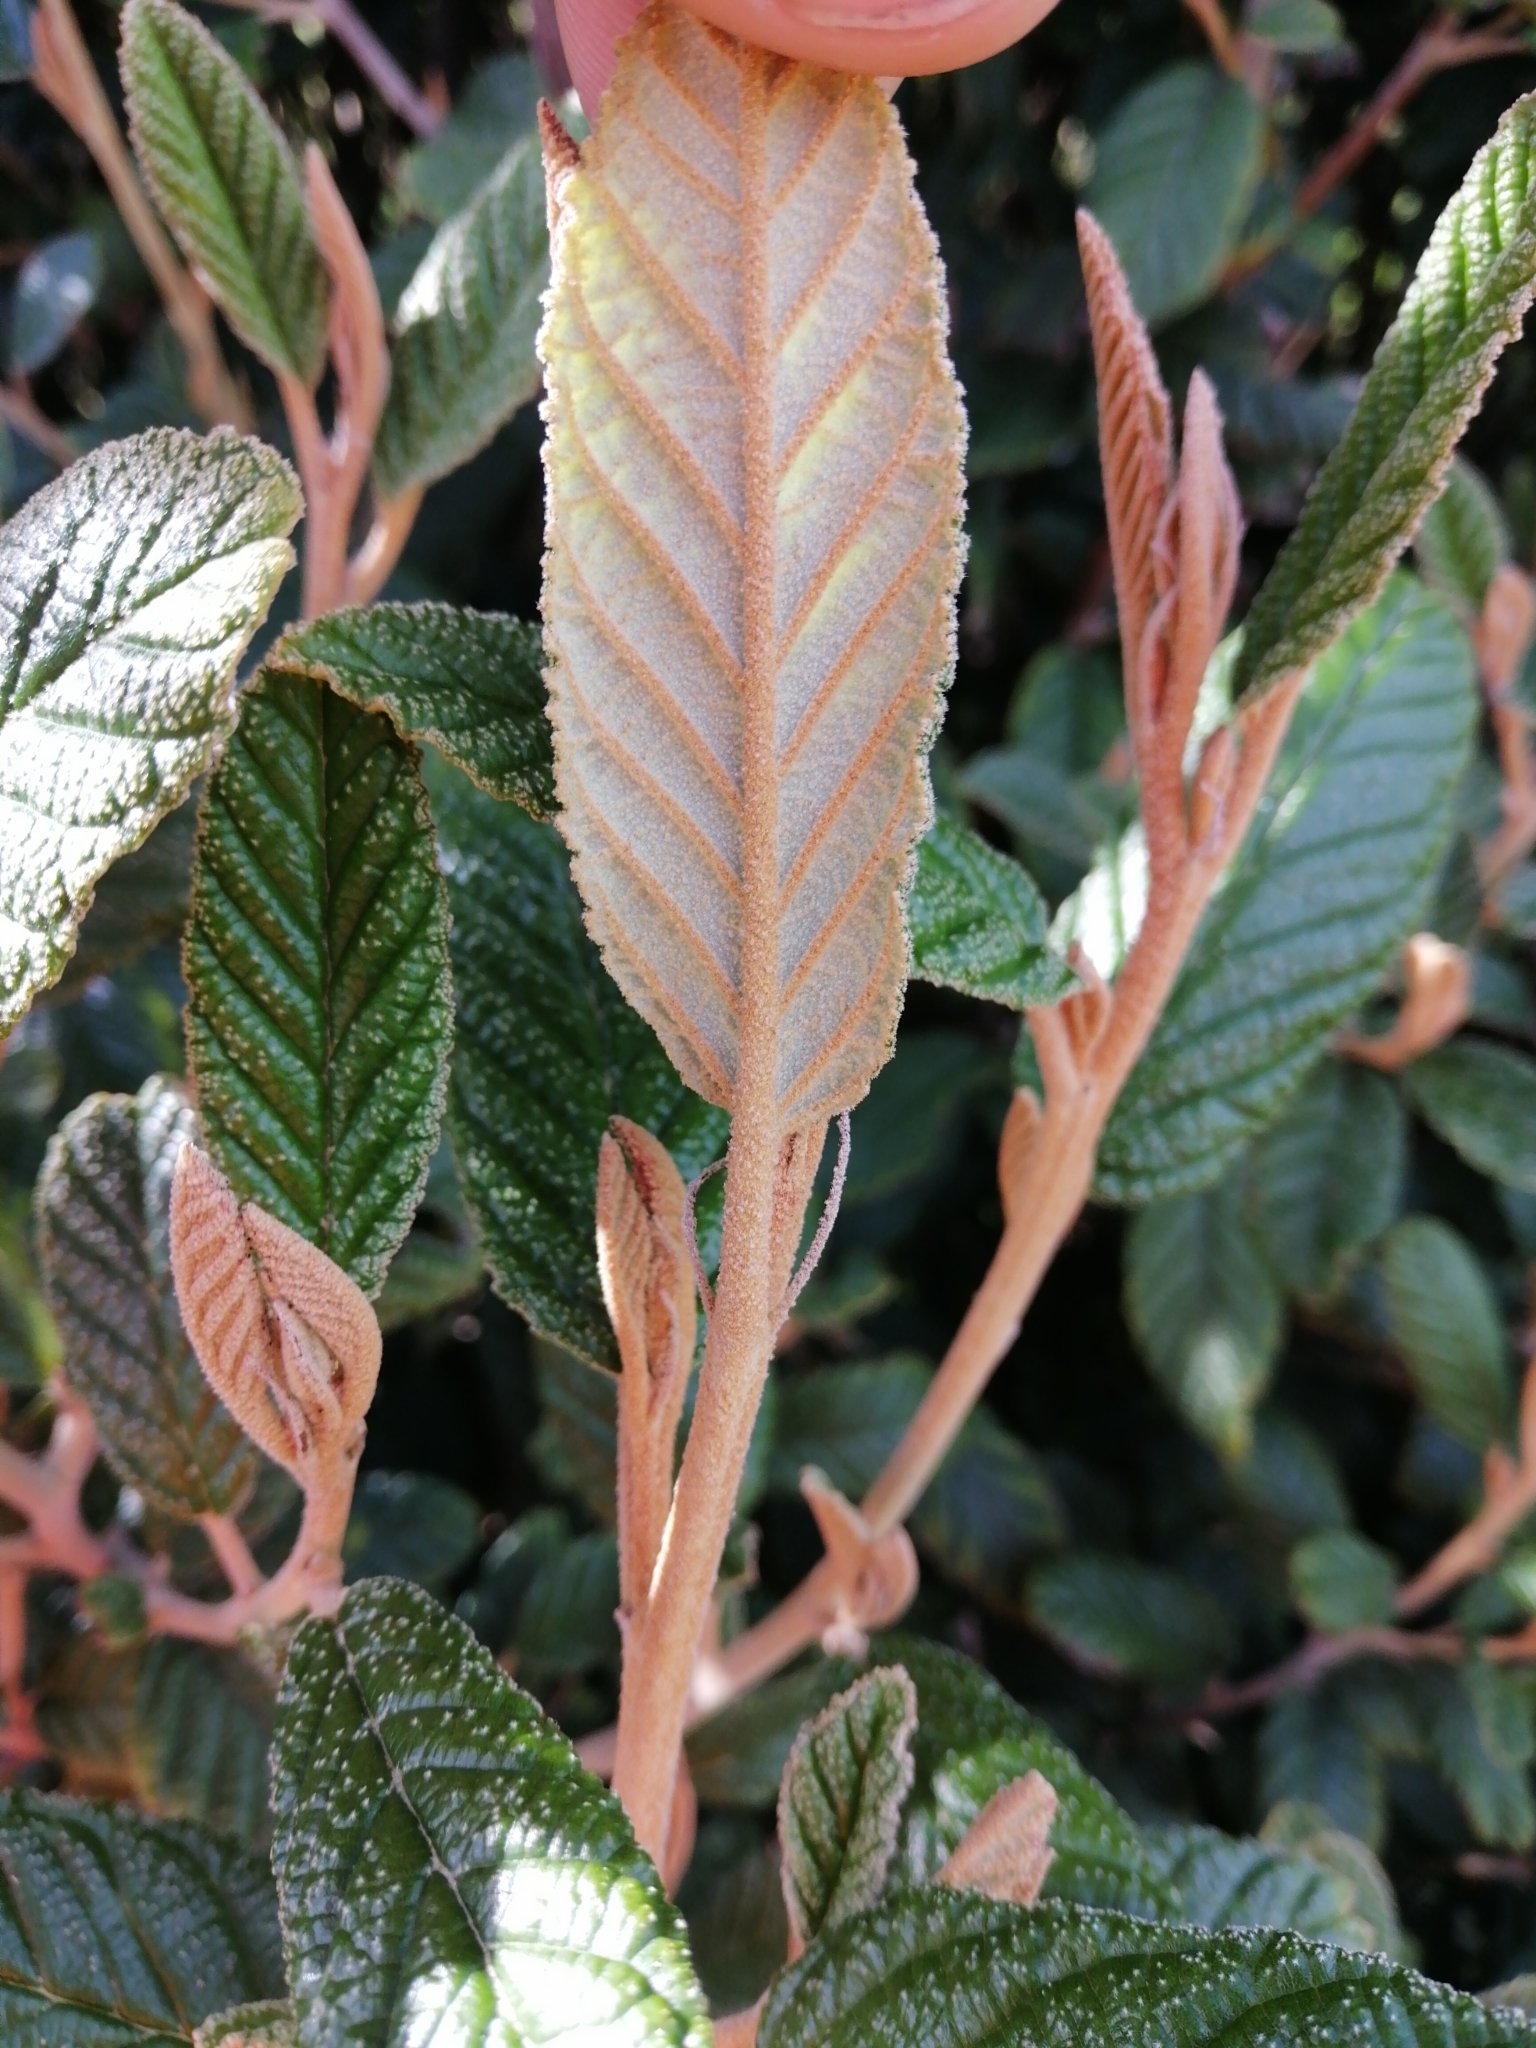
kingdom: Plantae
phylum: Tracheophyta
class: Magnoliopsida
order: Rosales
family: Rhamnaceae
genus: Pomaderris
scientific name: Pomaderris aspera
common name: Hazel pomaderris
